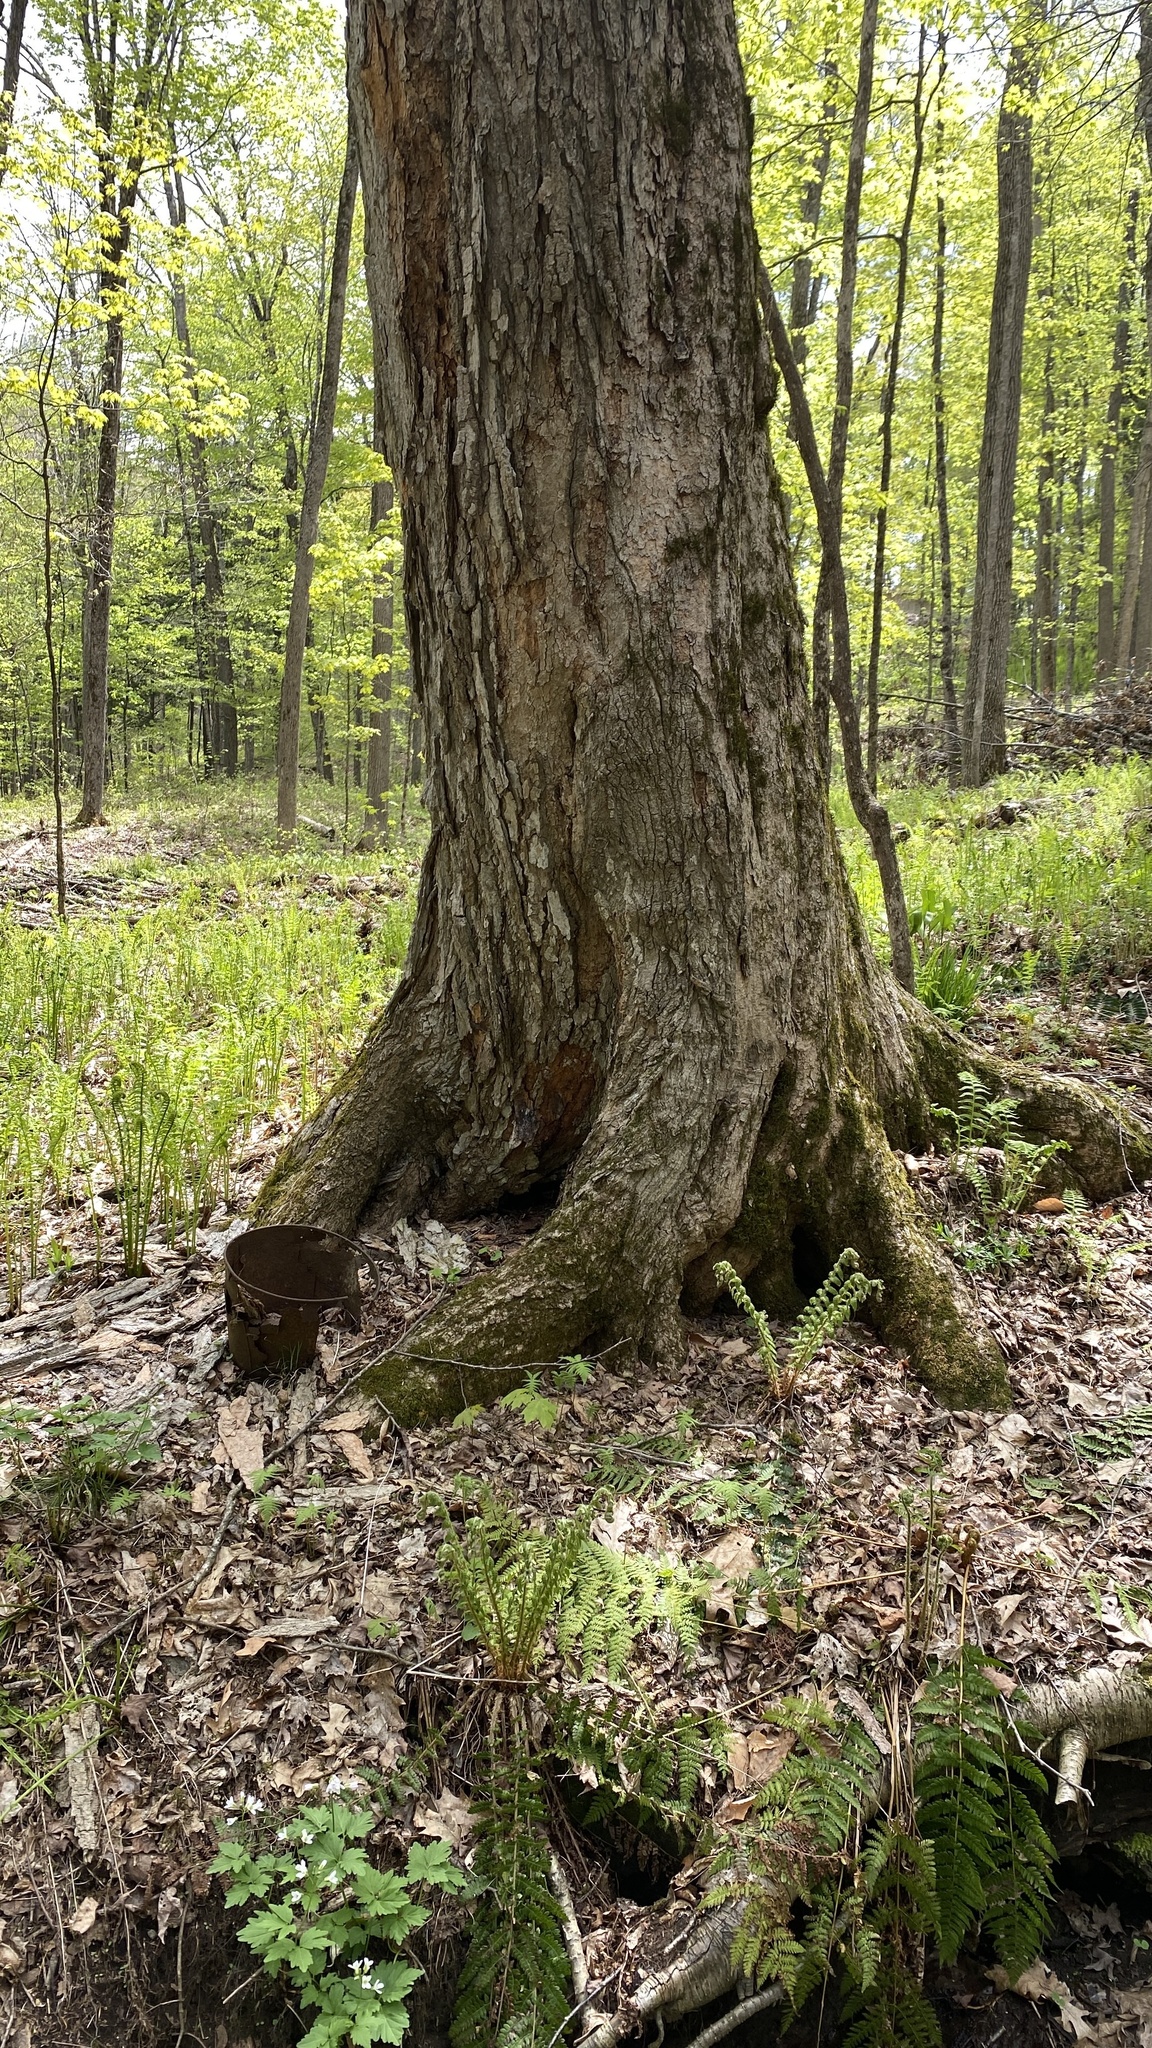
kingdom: Plantae
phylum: Tracheophyta
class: Magnoliopsida
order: Sapindales
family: Sapindaceae
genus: Acer
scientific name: Acer saccharum
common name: Sugar maple
